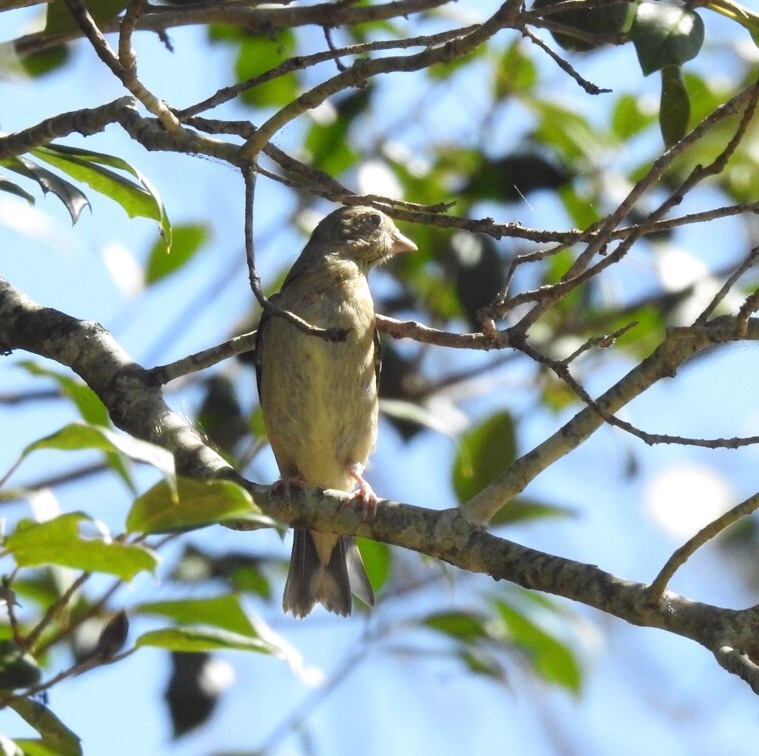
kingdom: Animalia
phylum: Chordata
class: Aves
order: Passeriformes
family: Fringillidae
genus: Spinus
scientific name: Spinus tristis
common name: American goldfinch
